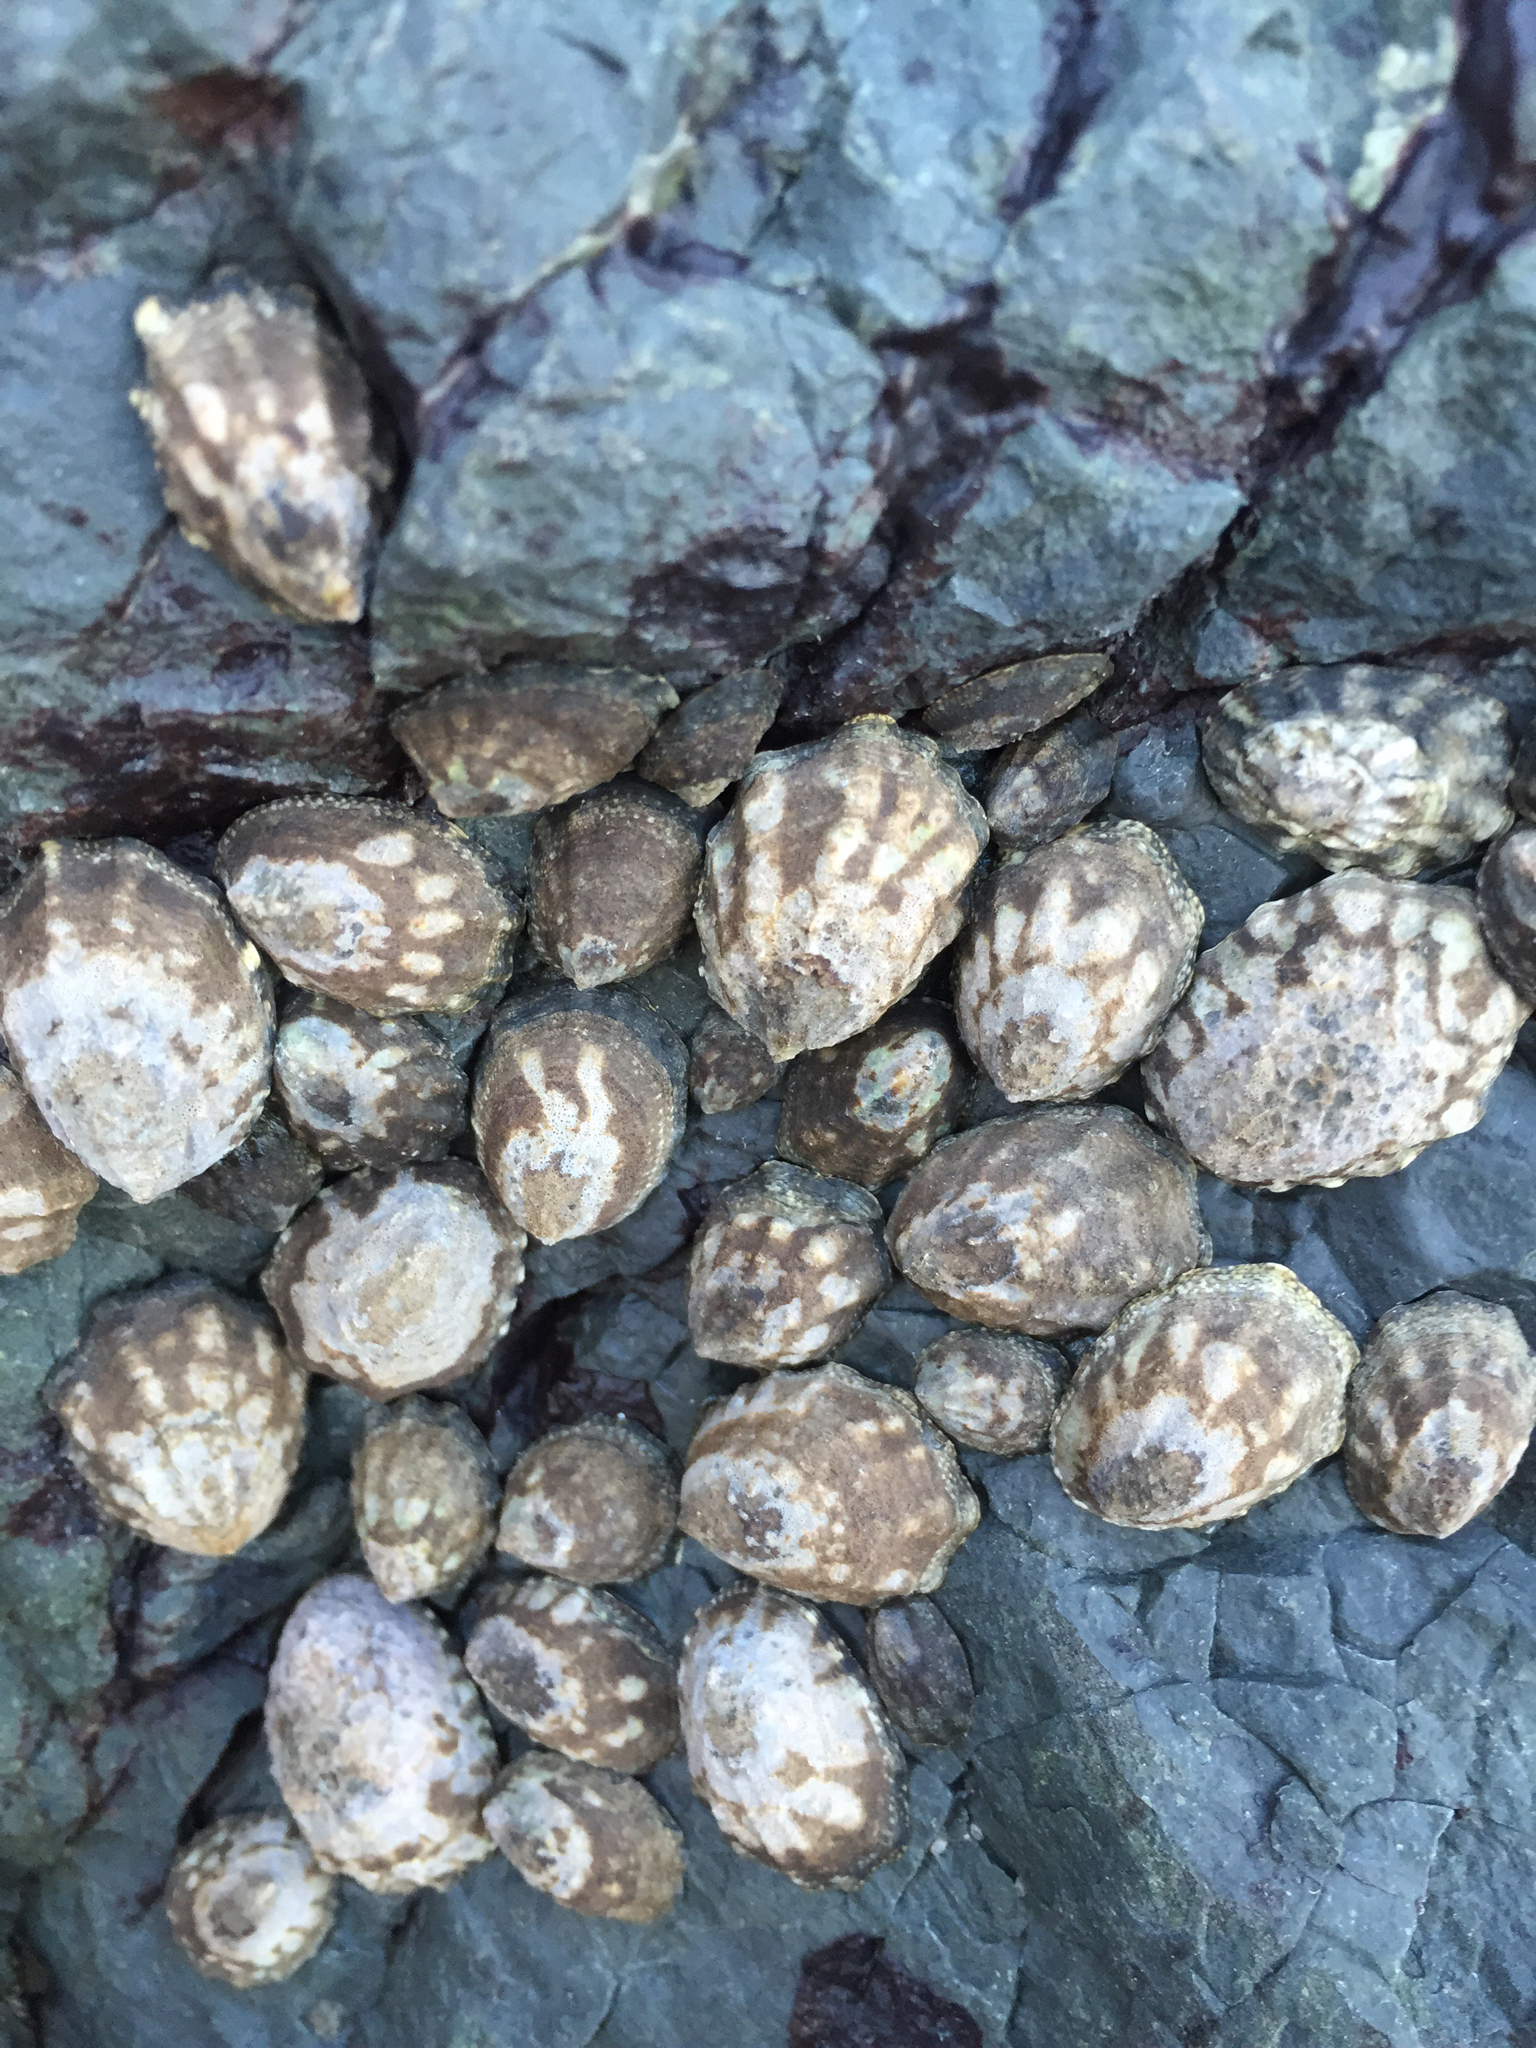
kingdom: Animalia
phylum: Mollusca
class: Gastropoda
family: Lottiidae
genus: Lottia
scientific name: Lottia digitalis
